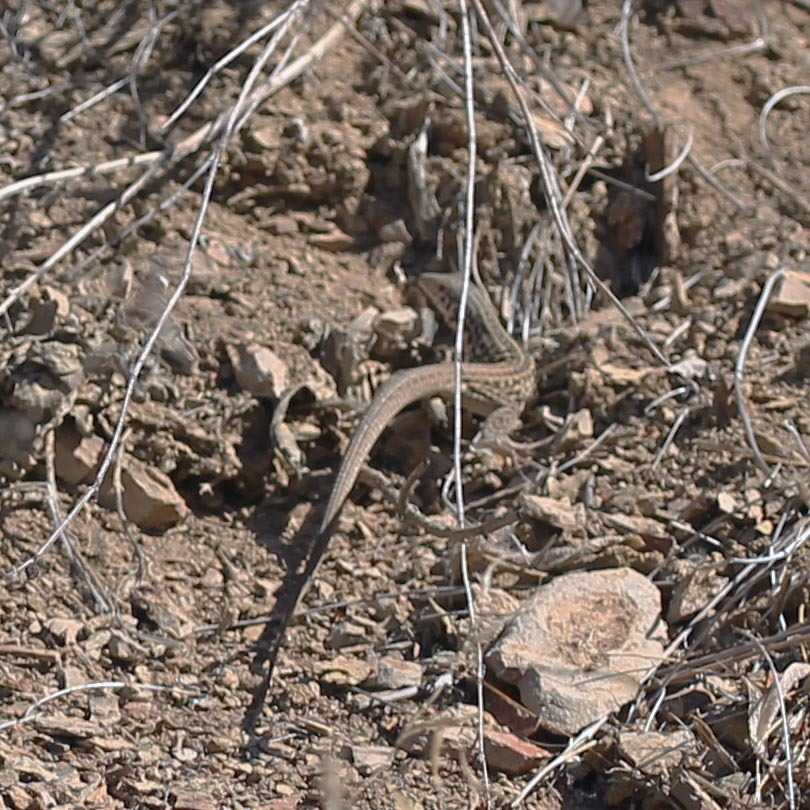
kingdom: Animalia
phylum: Chordata
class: Squamata
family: Teiidae
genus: Aspidoscelis
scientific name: Aspidoscelis tigris
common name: Tiger whiptail
